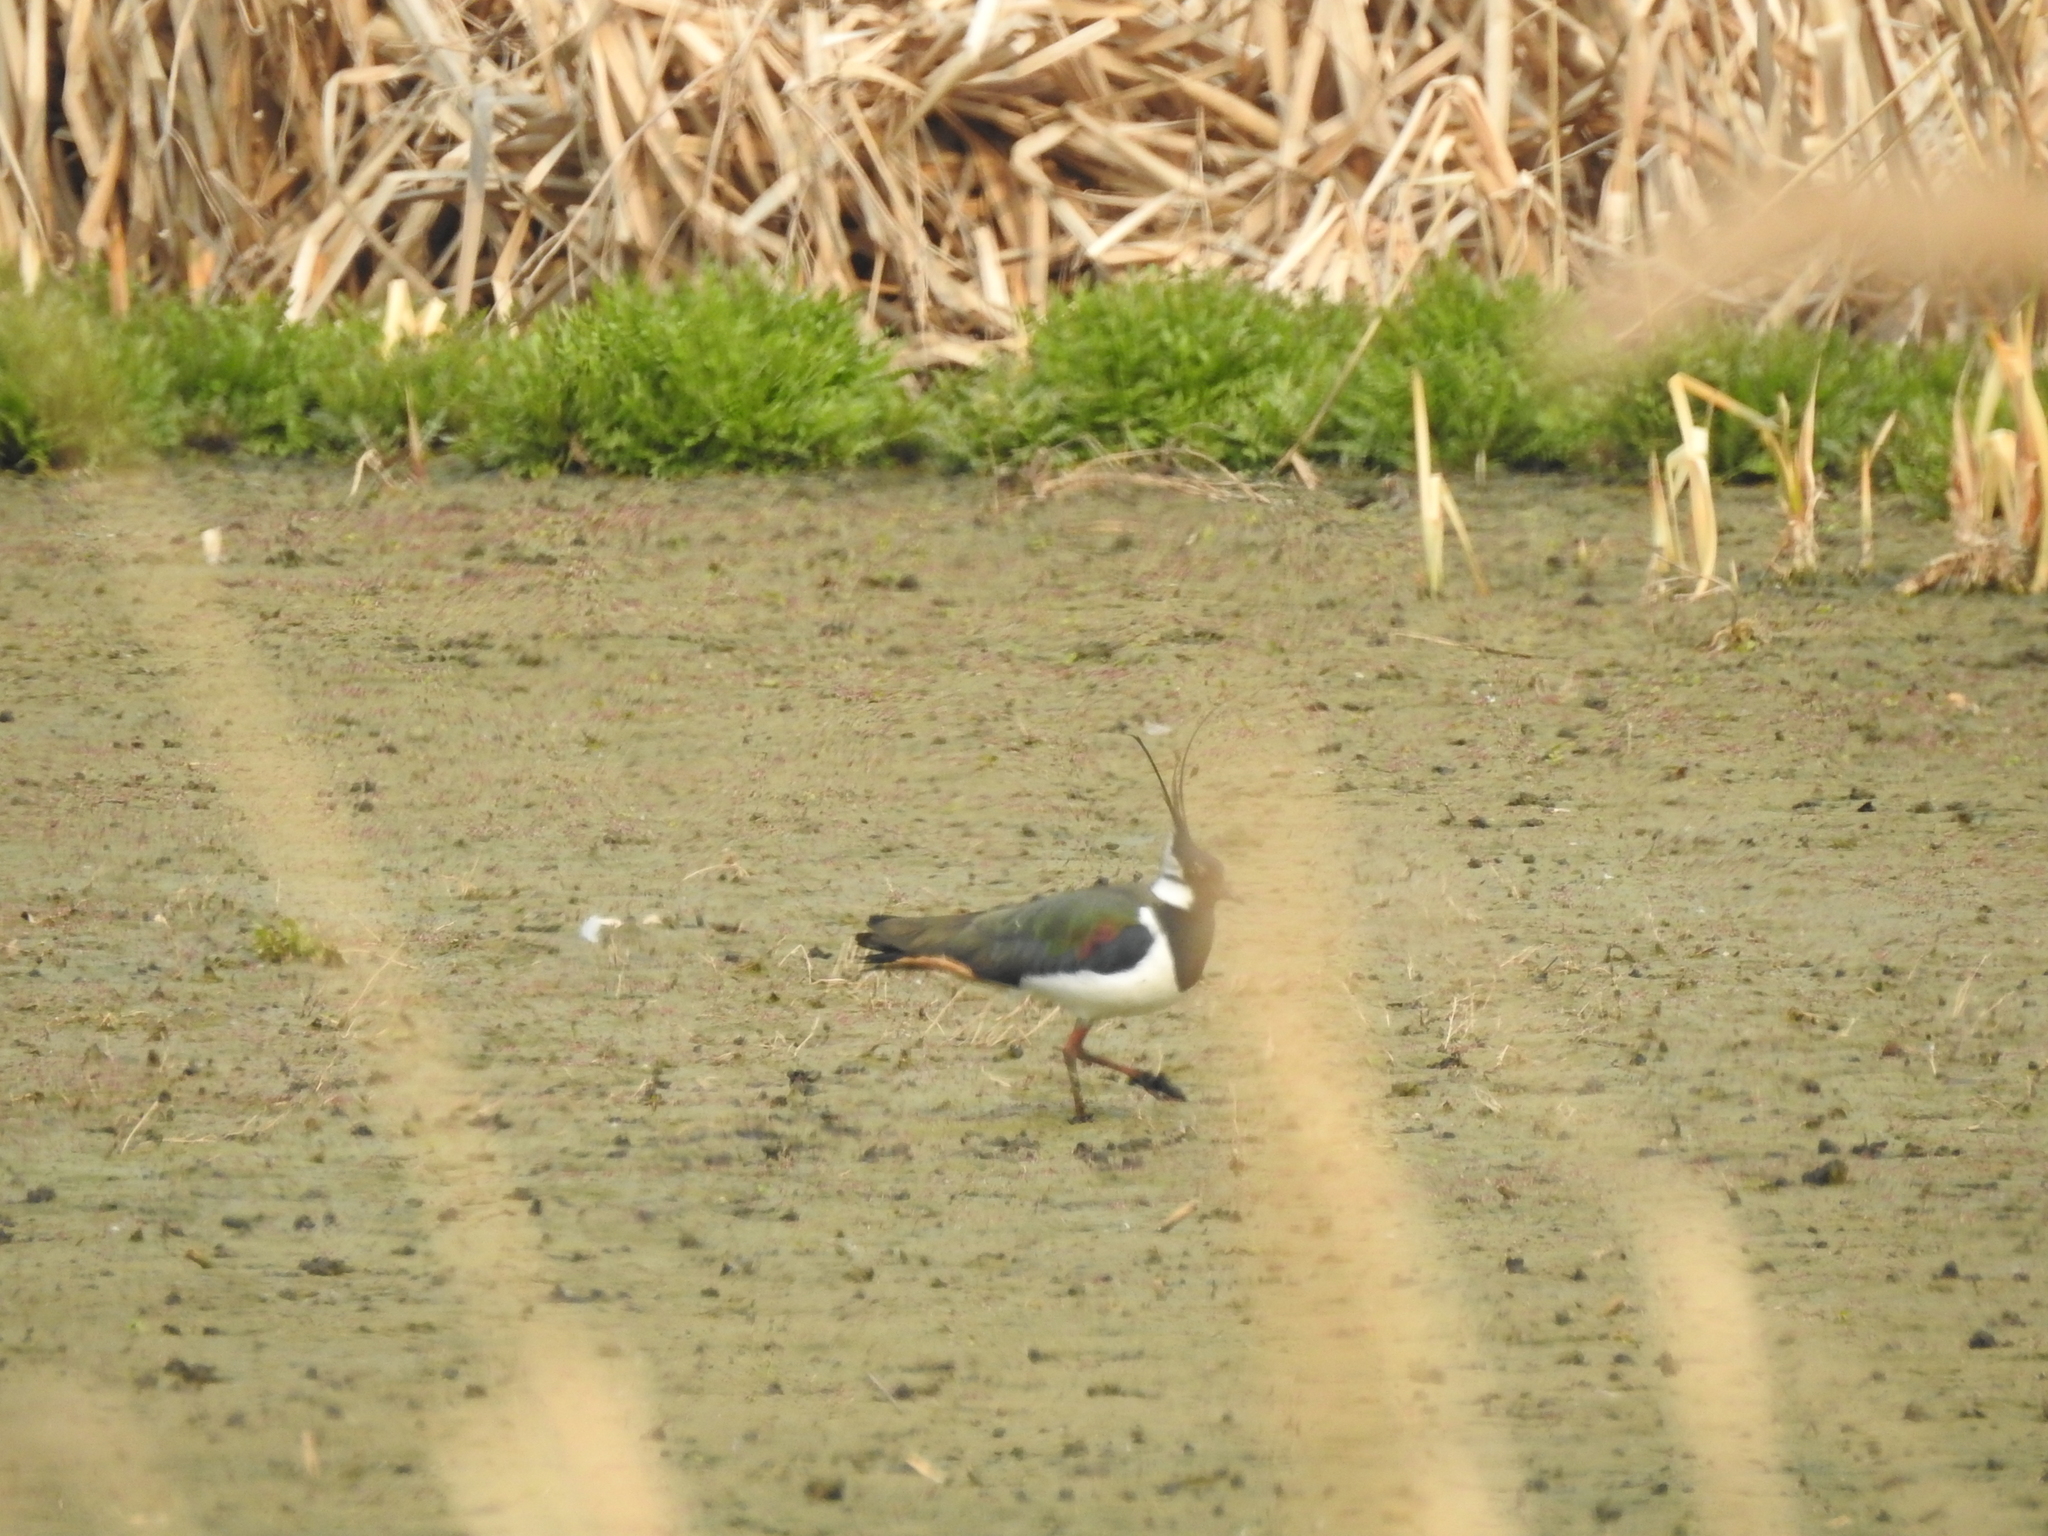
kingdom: Animalia
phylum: Chordata
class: Aves
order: Charadriiformes
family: Charadriidae
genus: Vanellus
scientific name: Vanellus vanellus
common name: Northern lapwing
